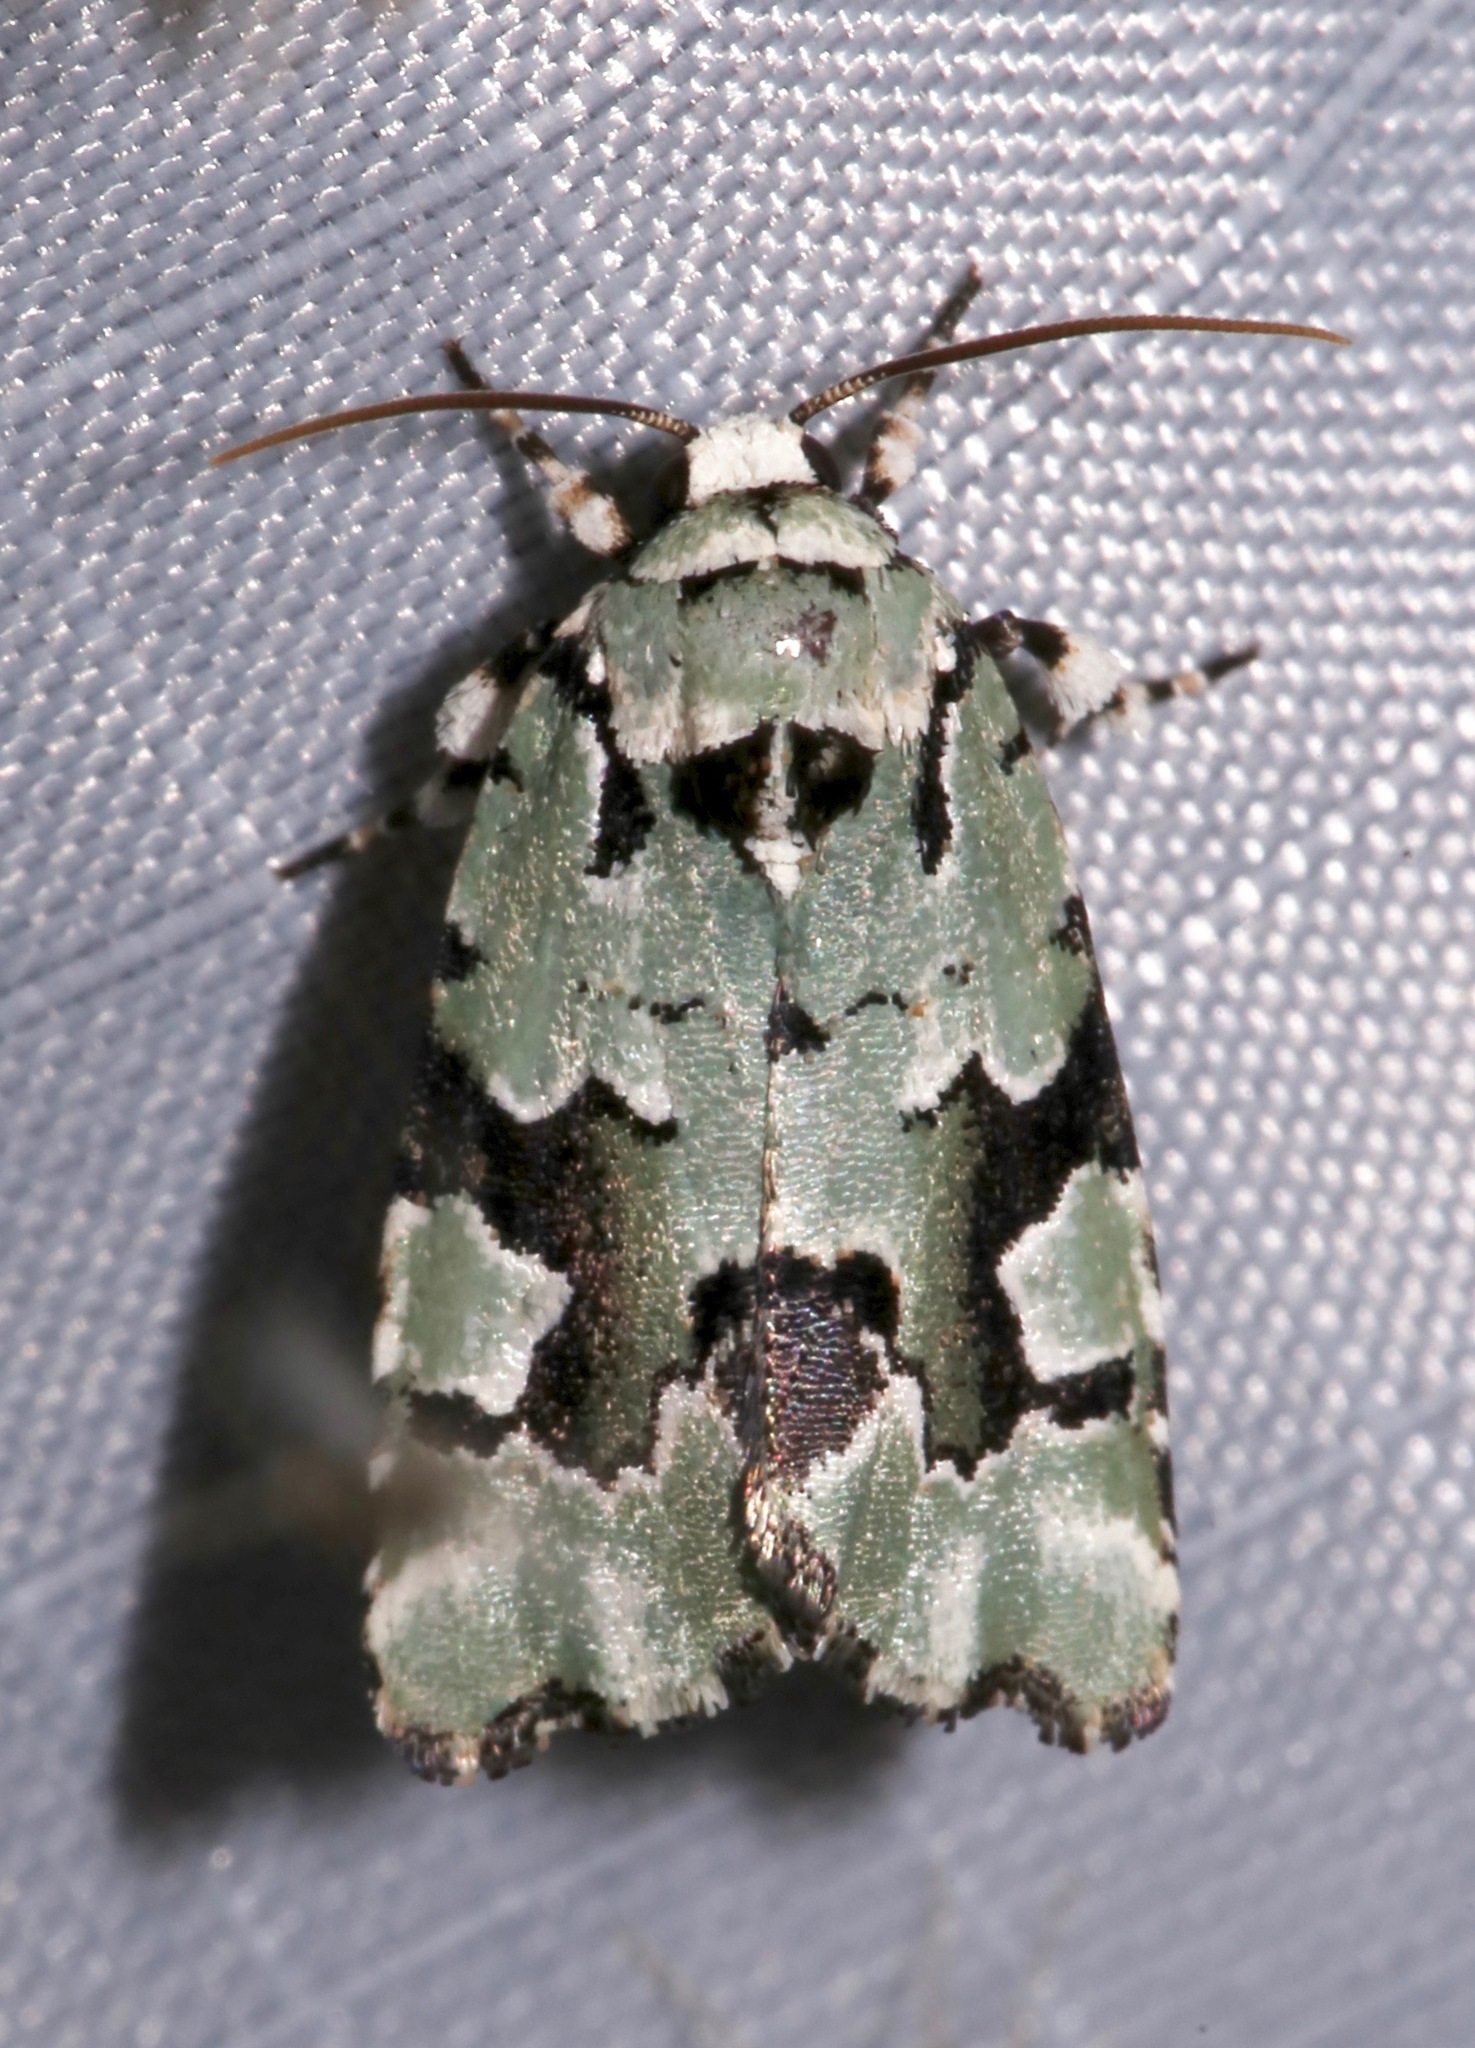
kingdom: Animalia
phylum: Arthropoda
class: Insecta
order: Lepidoptera
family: Noctuidae
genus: Emarginea
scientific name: Emarginea percara
